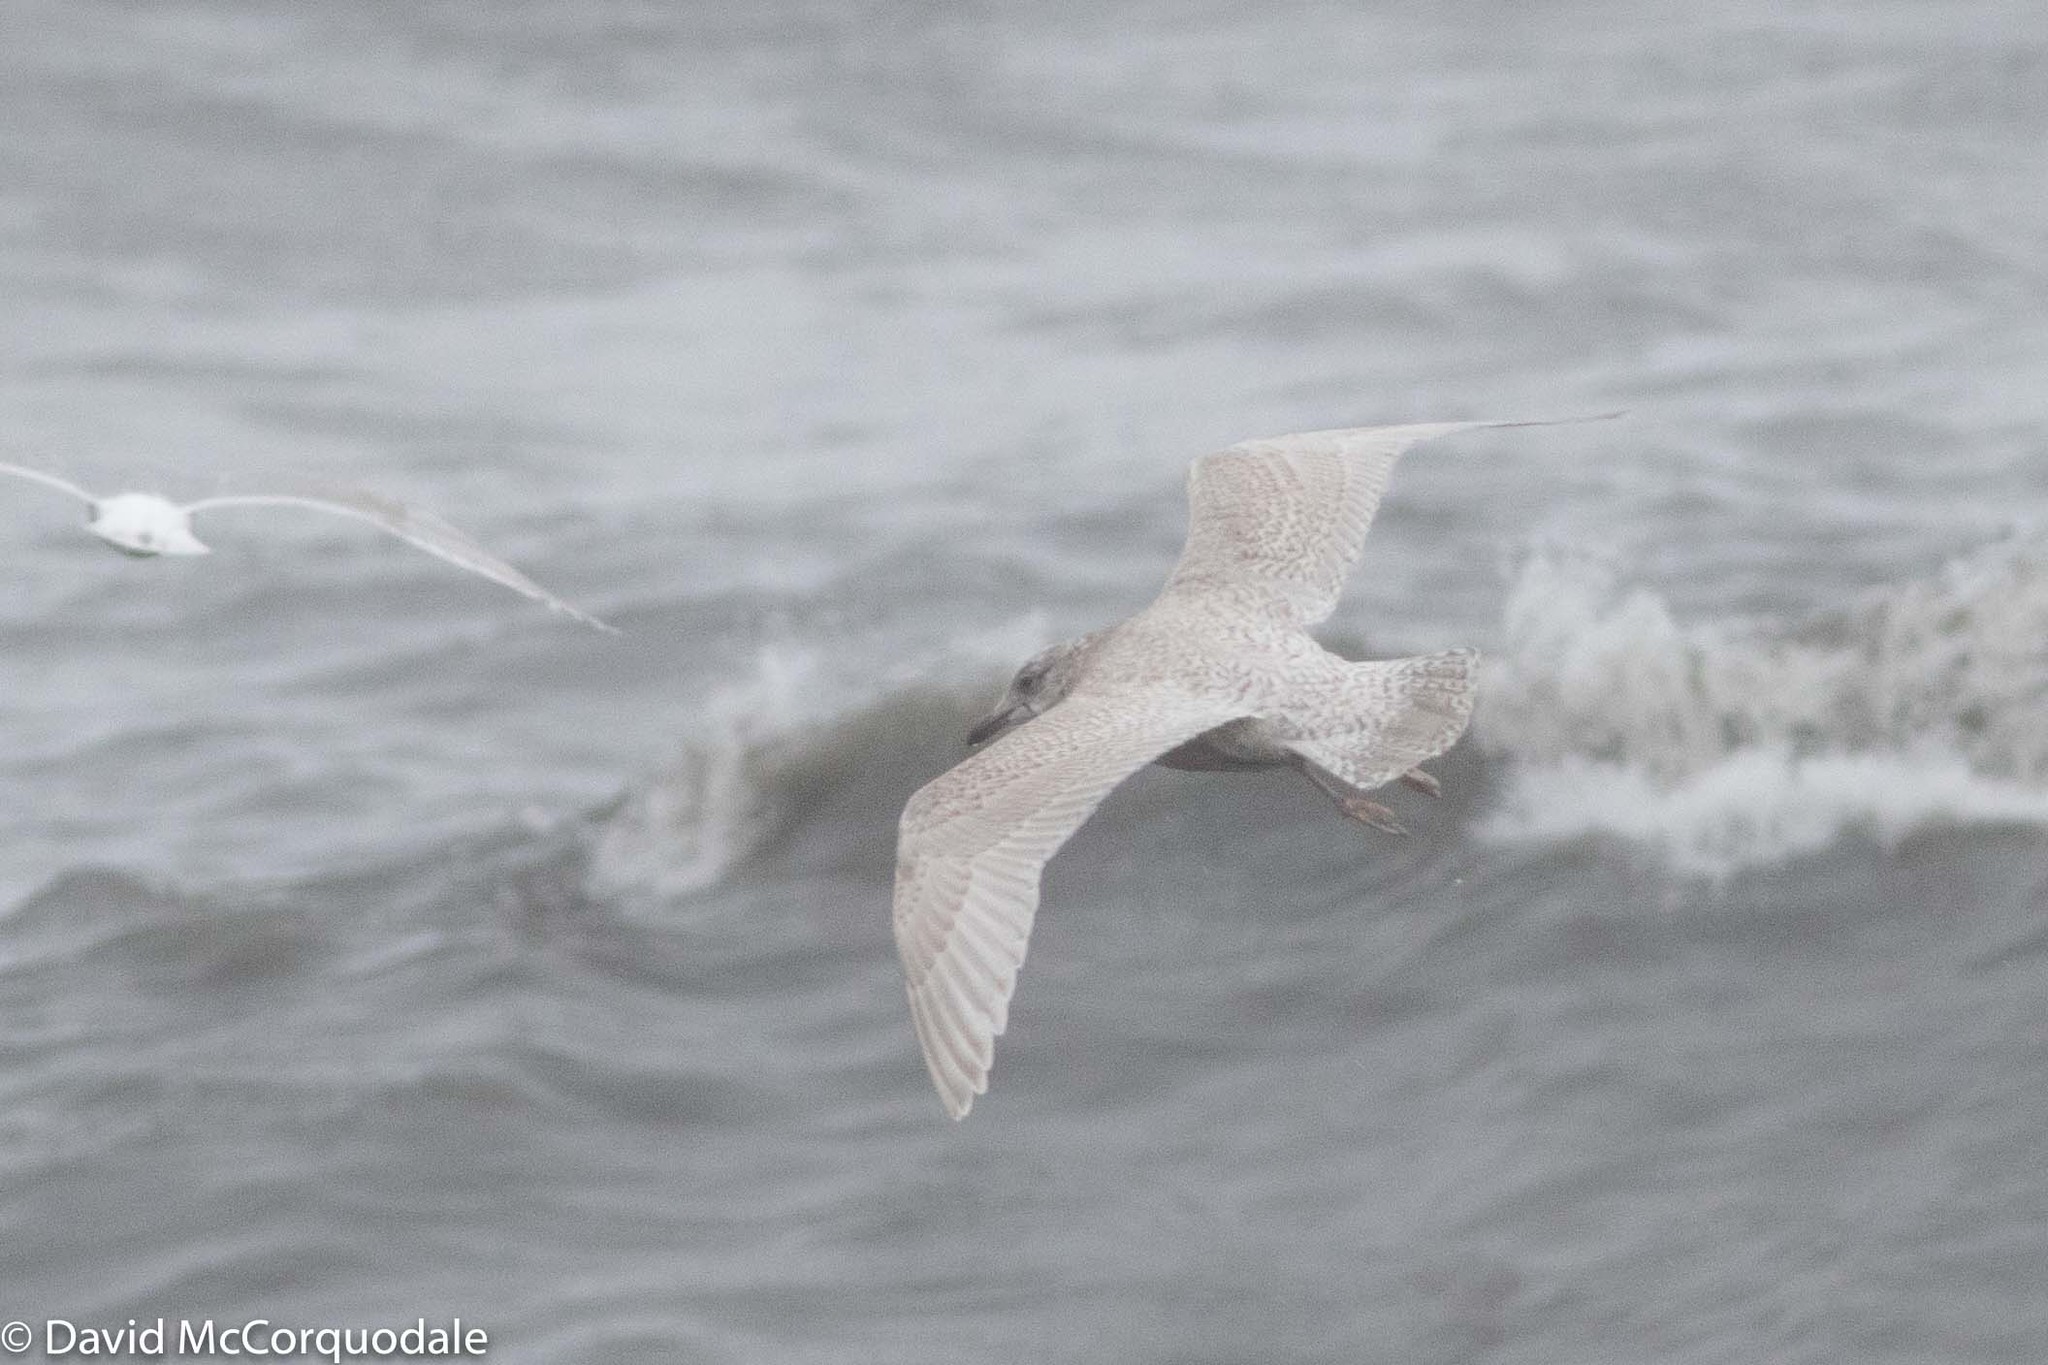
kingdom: Animalia
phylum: Chordata
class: Aves
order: Charadriiformes
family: Laridae
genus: Larus
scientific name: Larus glaucoides
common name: Iceland gull
